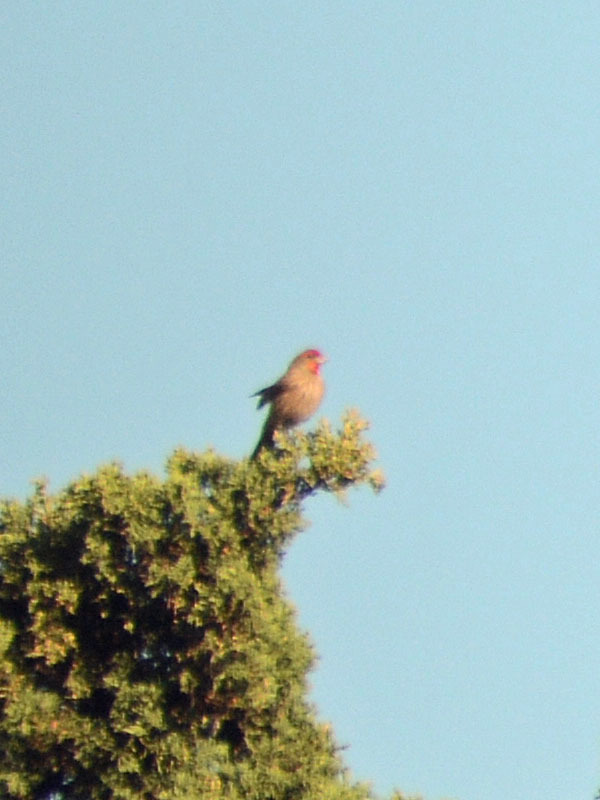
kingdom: Animalia
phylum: Chordata
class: Aves
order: Passeriformes
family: Fringillidae
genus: Haemorhous
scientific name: Haemorhous mexicanus
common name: House finch
